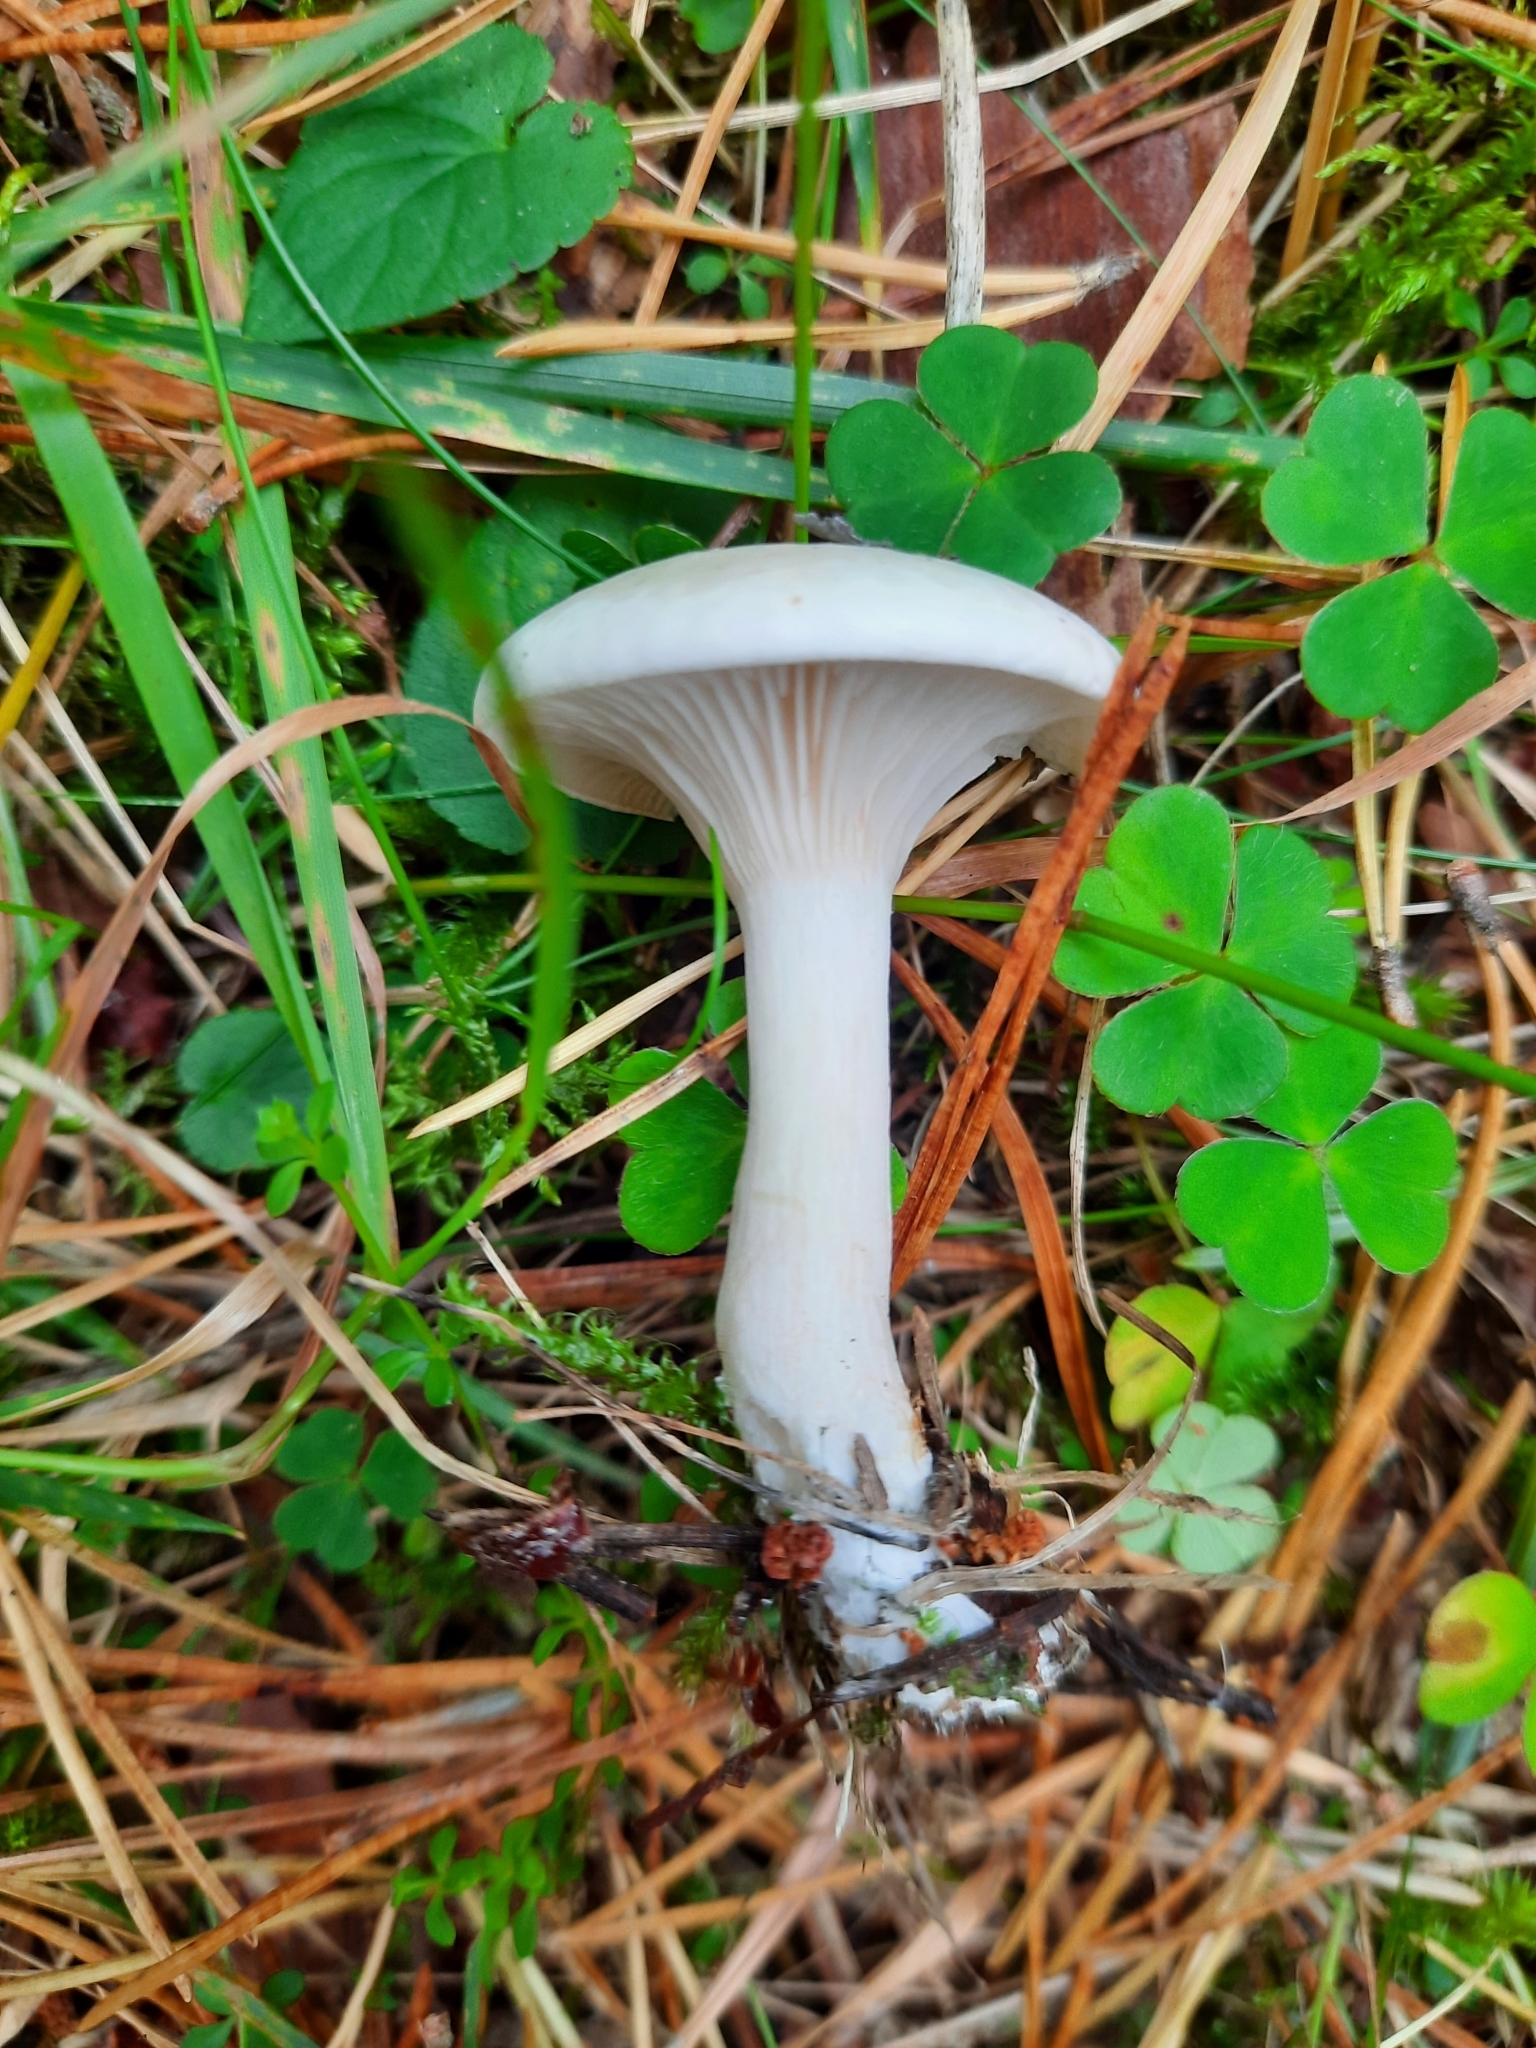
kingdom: Fungi
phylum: Basidiomycota
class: Agaricomycetes
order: Agaricales
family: Entolomataceae
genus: Clitopilus
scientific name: Clitopilus prunulus
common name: The miller
